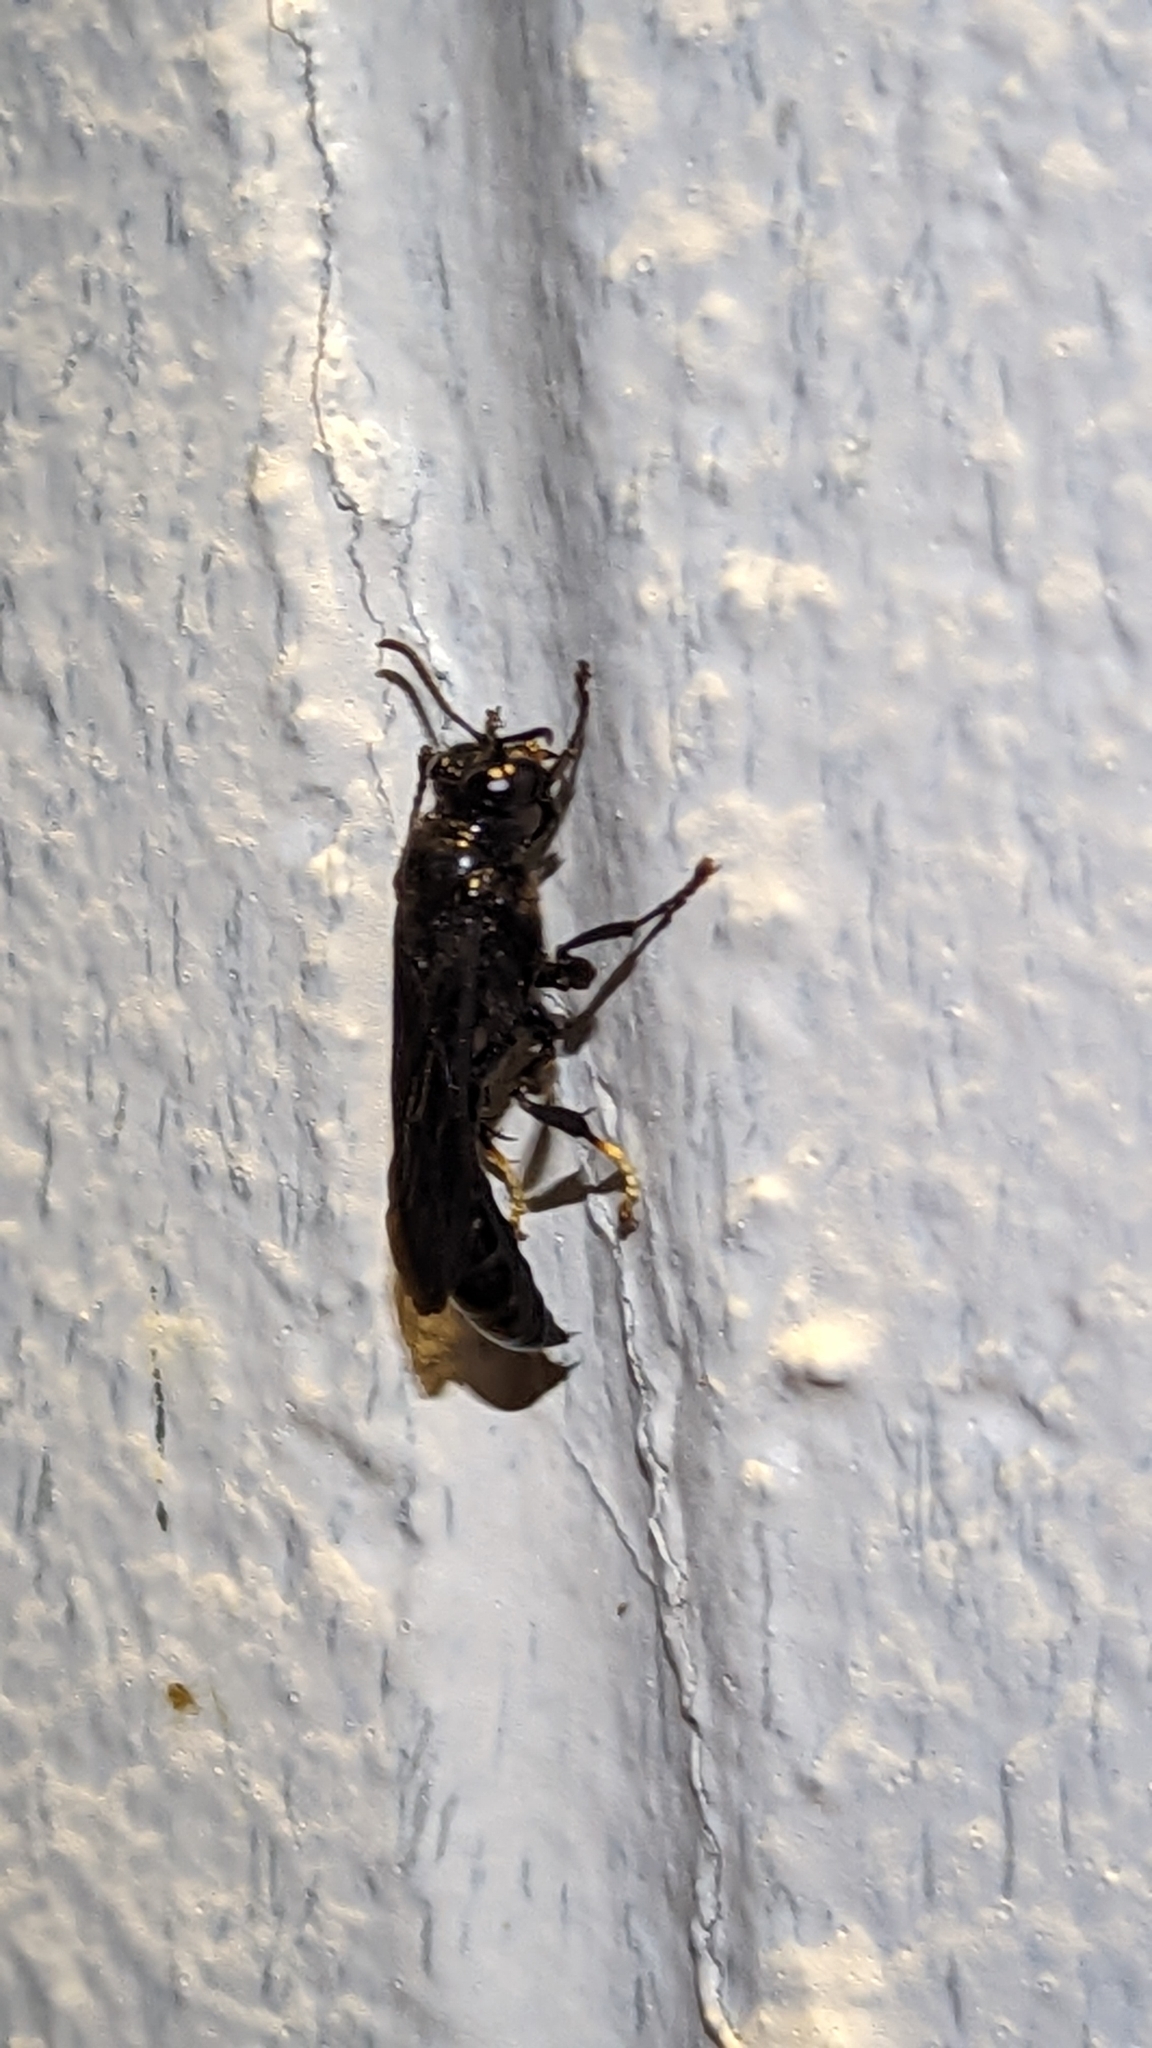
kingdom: Animalia
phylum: Arthropoda
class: Insecta
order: Hymenoptera
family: Crabronidae
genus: Trypoxylon
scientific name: Trypoxylon politum
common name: Organ-pipe mud-dauber wasp
